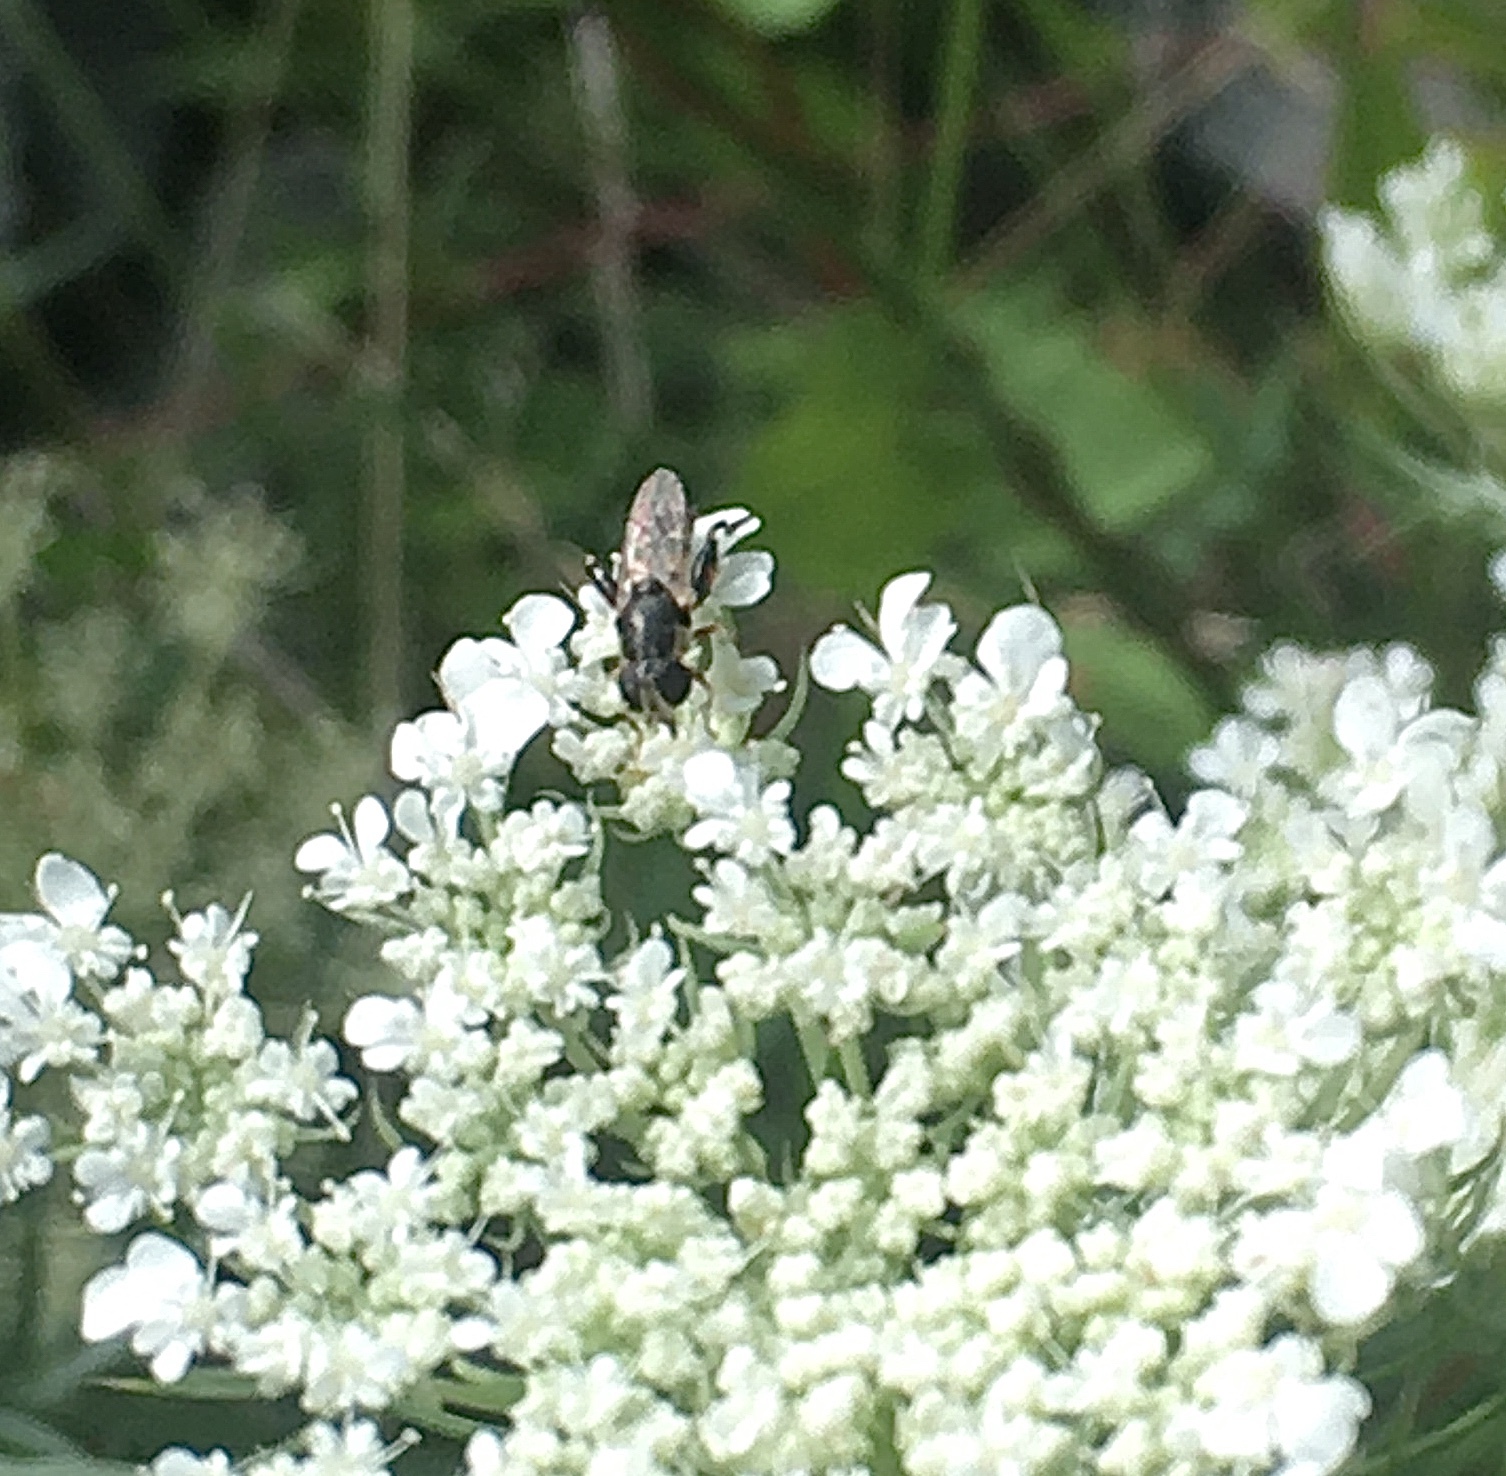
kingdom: Animalia
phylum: Arthropoda
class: Insecta
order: Diptera
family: Syrphidae
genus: Syritta
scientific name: Syritta pipiens
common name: Hover fly
